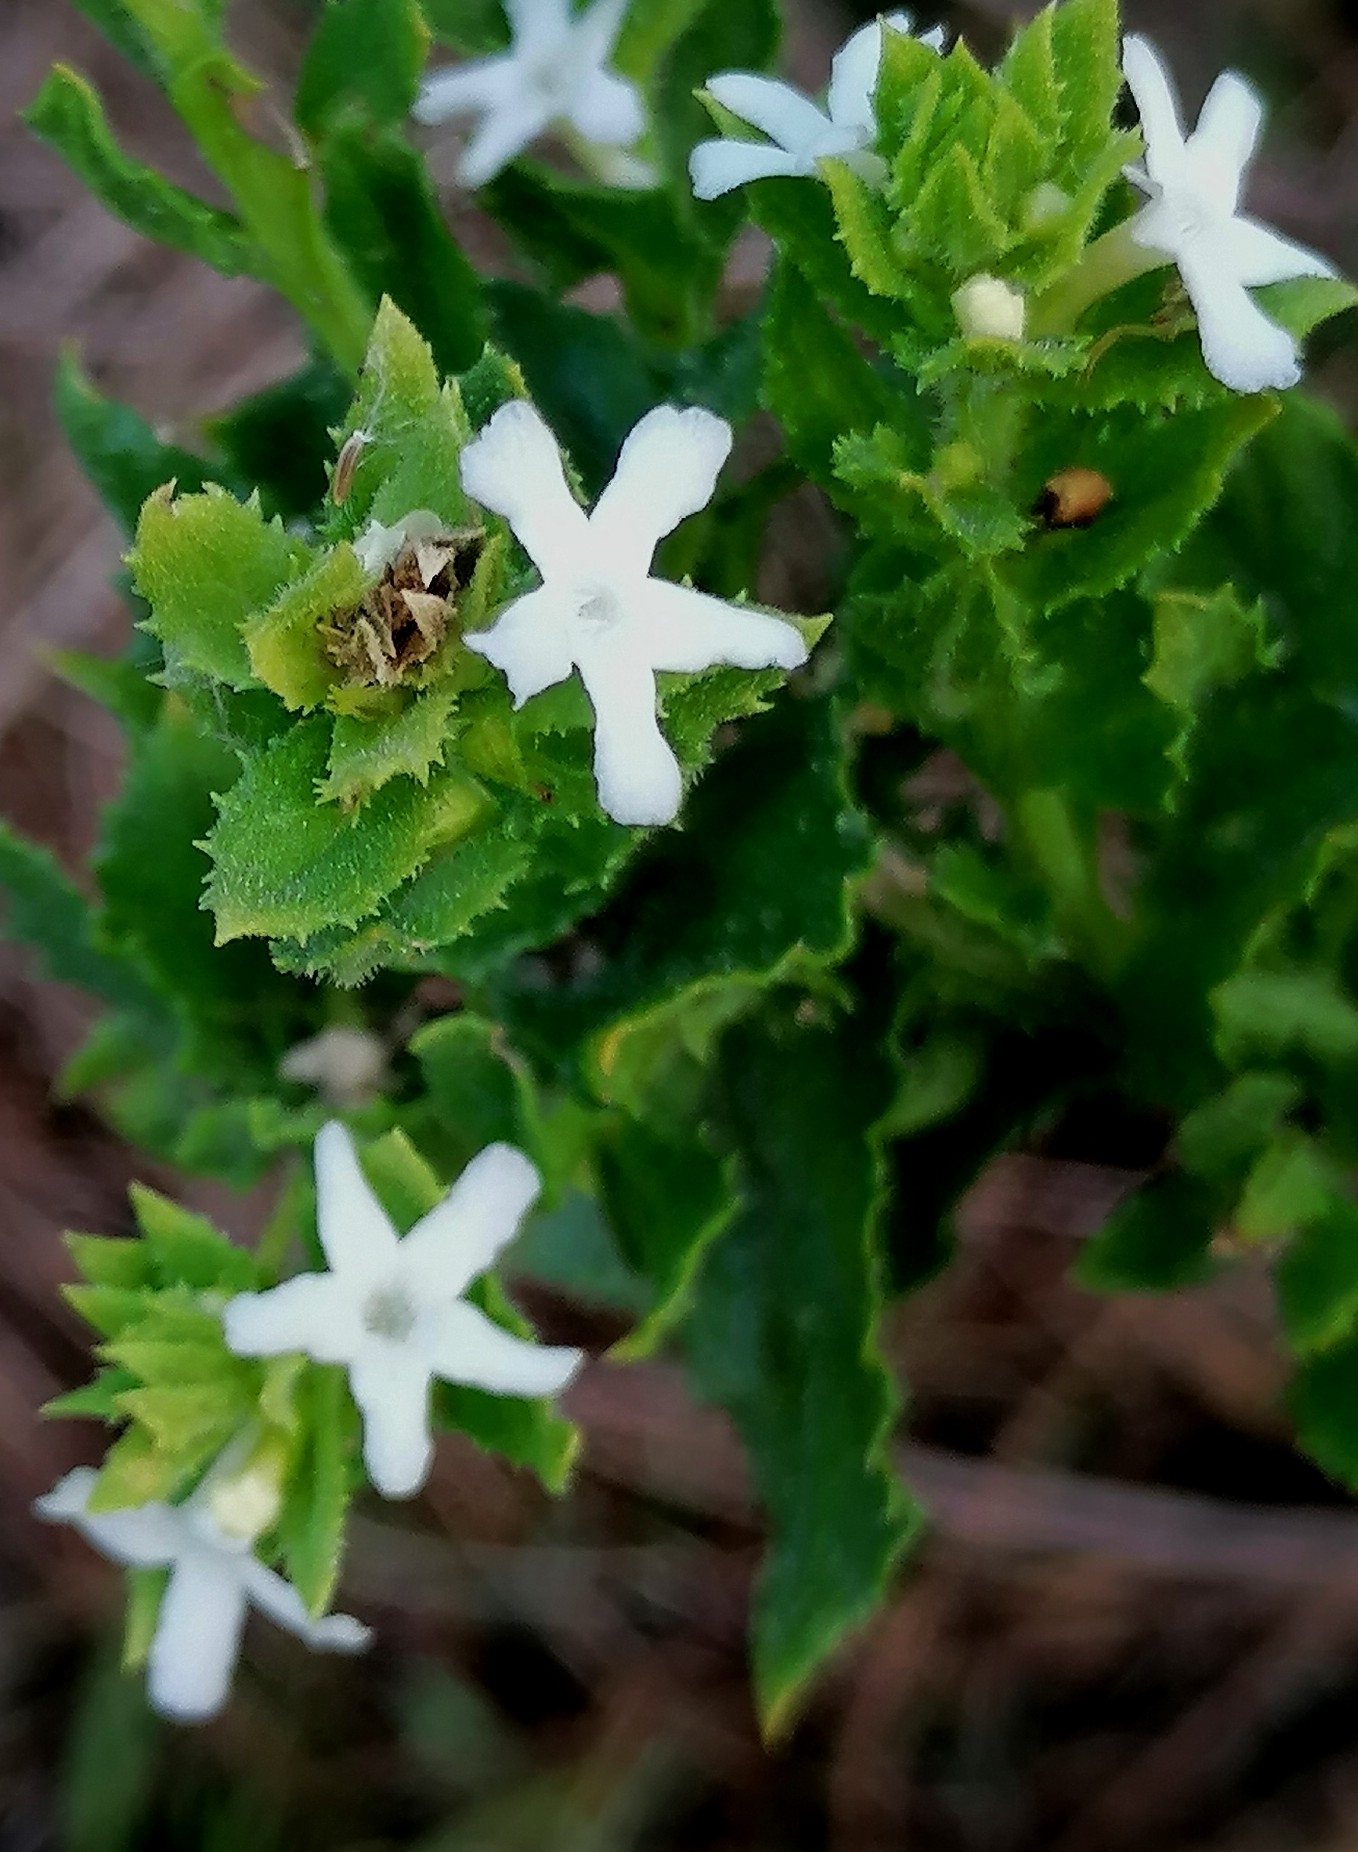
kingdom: Plantae
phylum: Tracheophyta
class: Magnoliopsida
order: Lamiales
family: Scrophulariaceae
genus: Oftia
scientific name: Oftia africana
